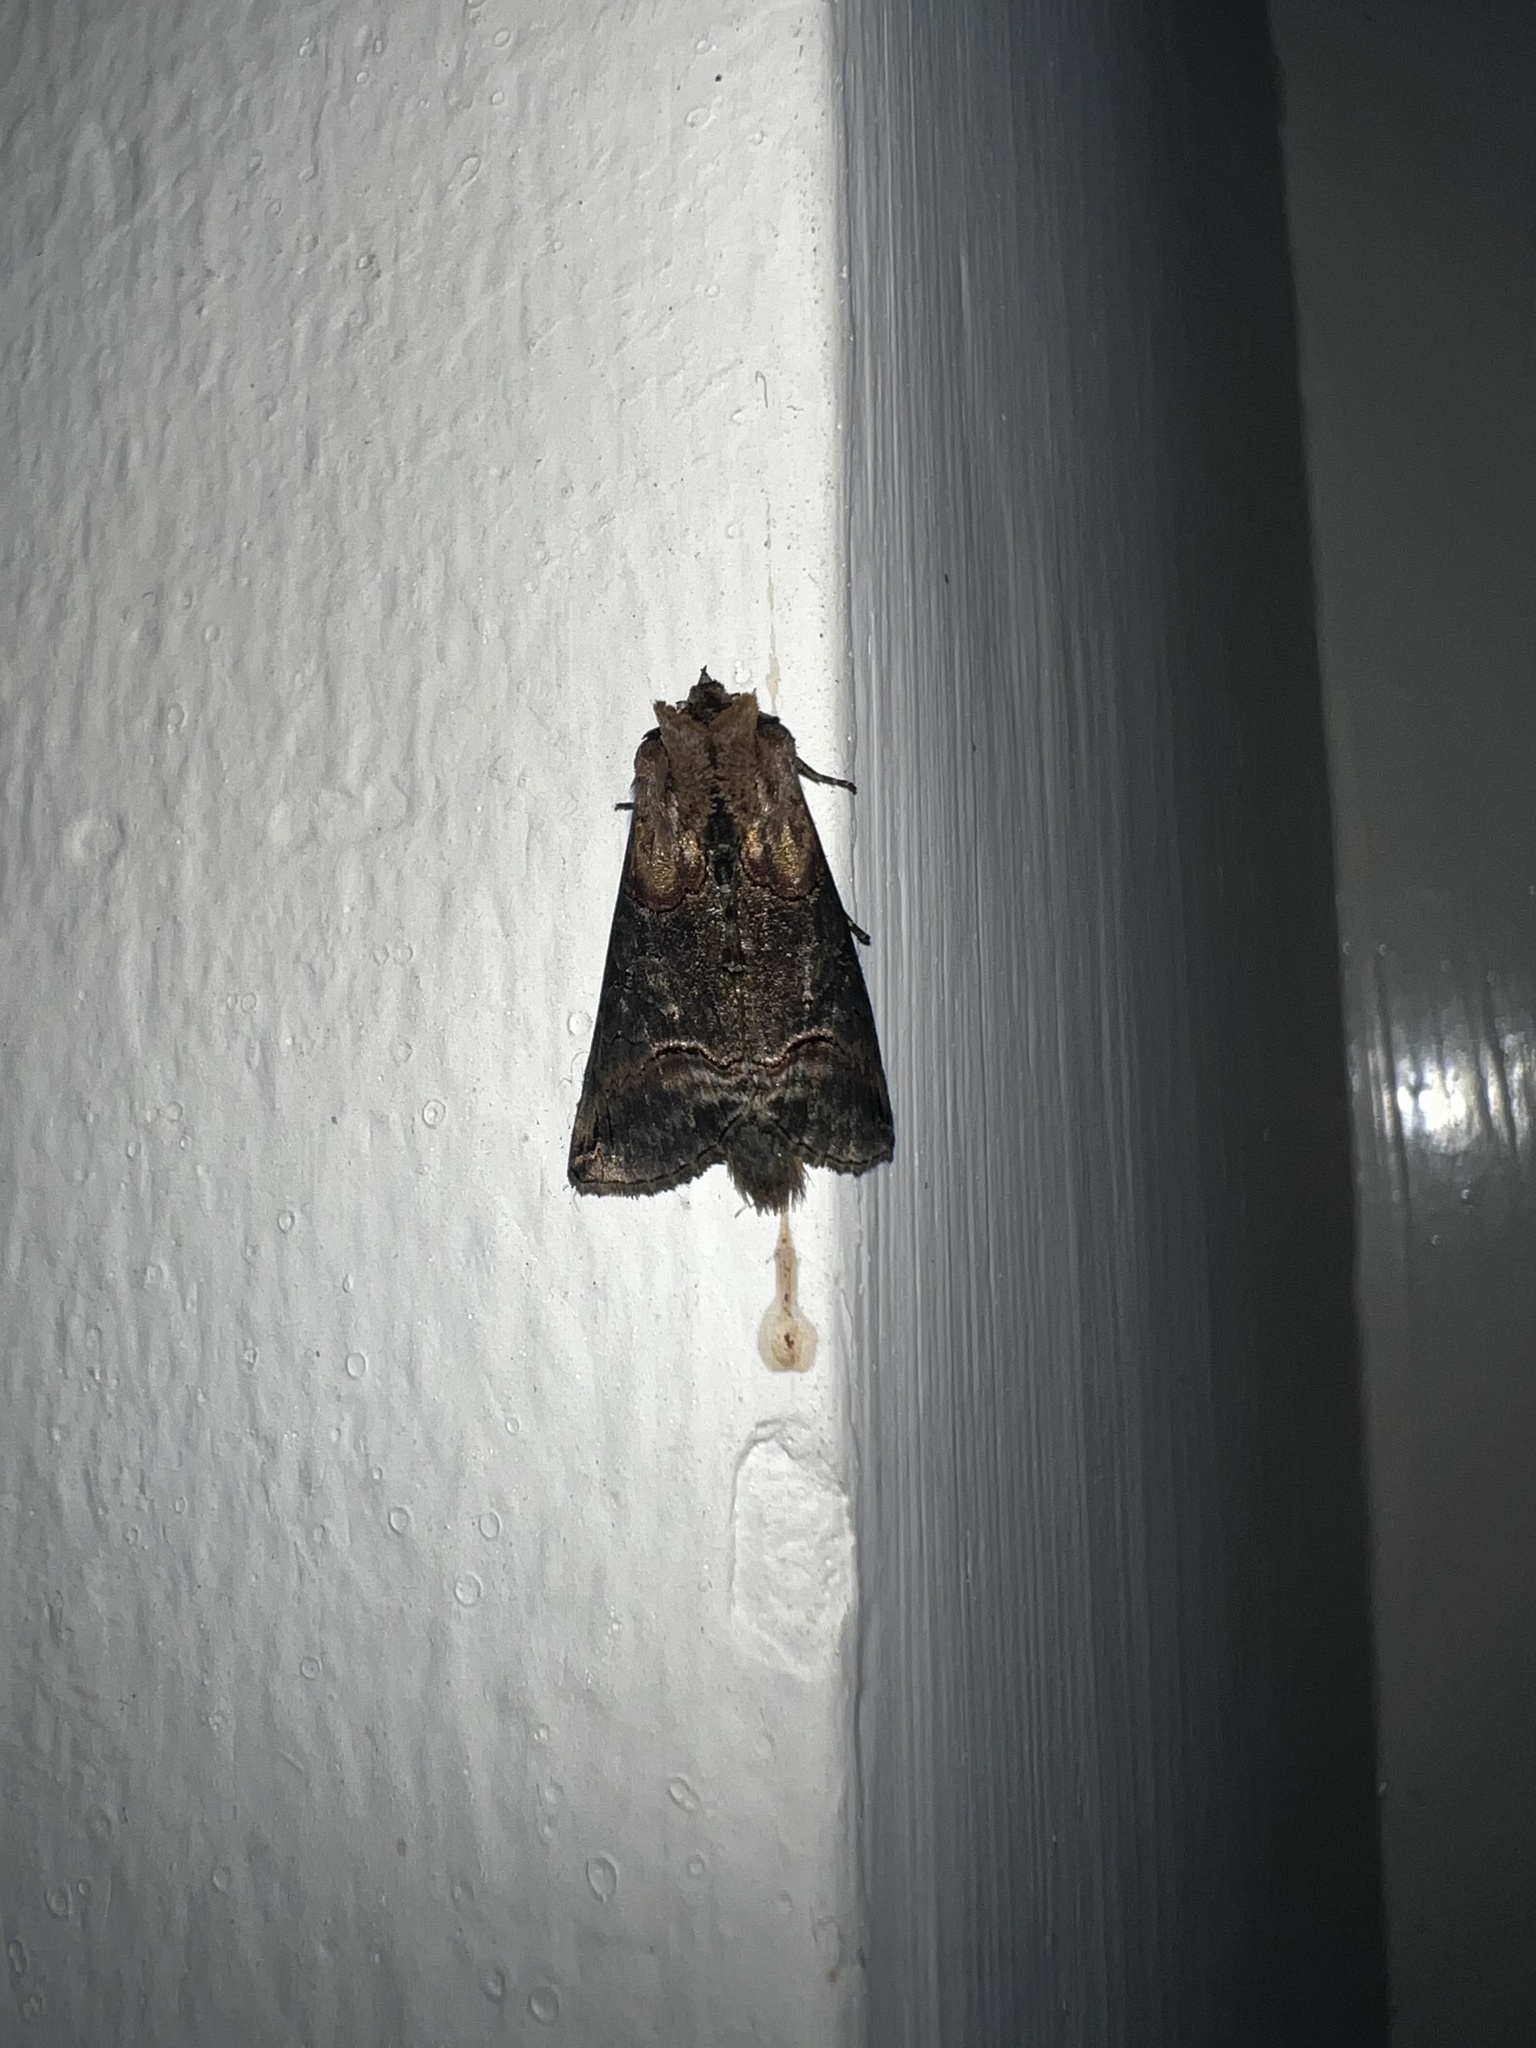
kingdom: Animalia
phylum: Arthropoda
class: Insecta
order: Lepidoptera
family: Noctuidae
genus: Abrostola
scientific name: Abrostola triplasia
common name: Dark spectacle
